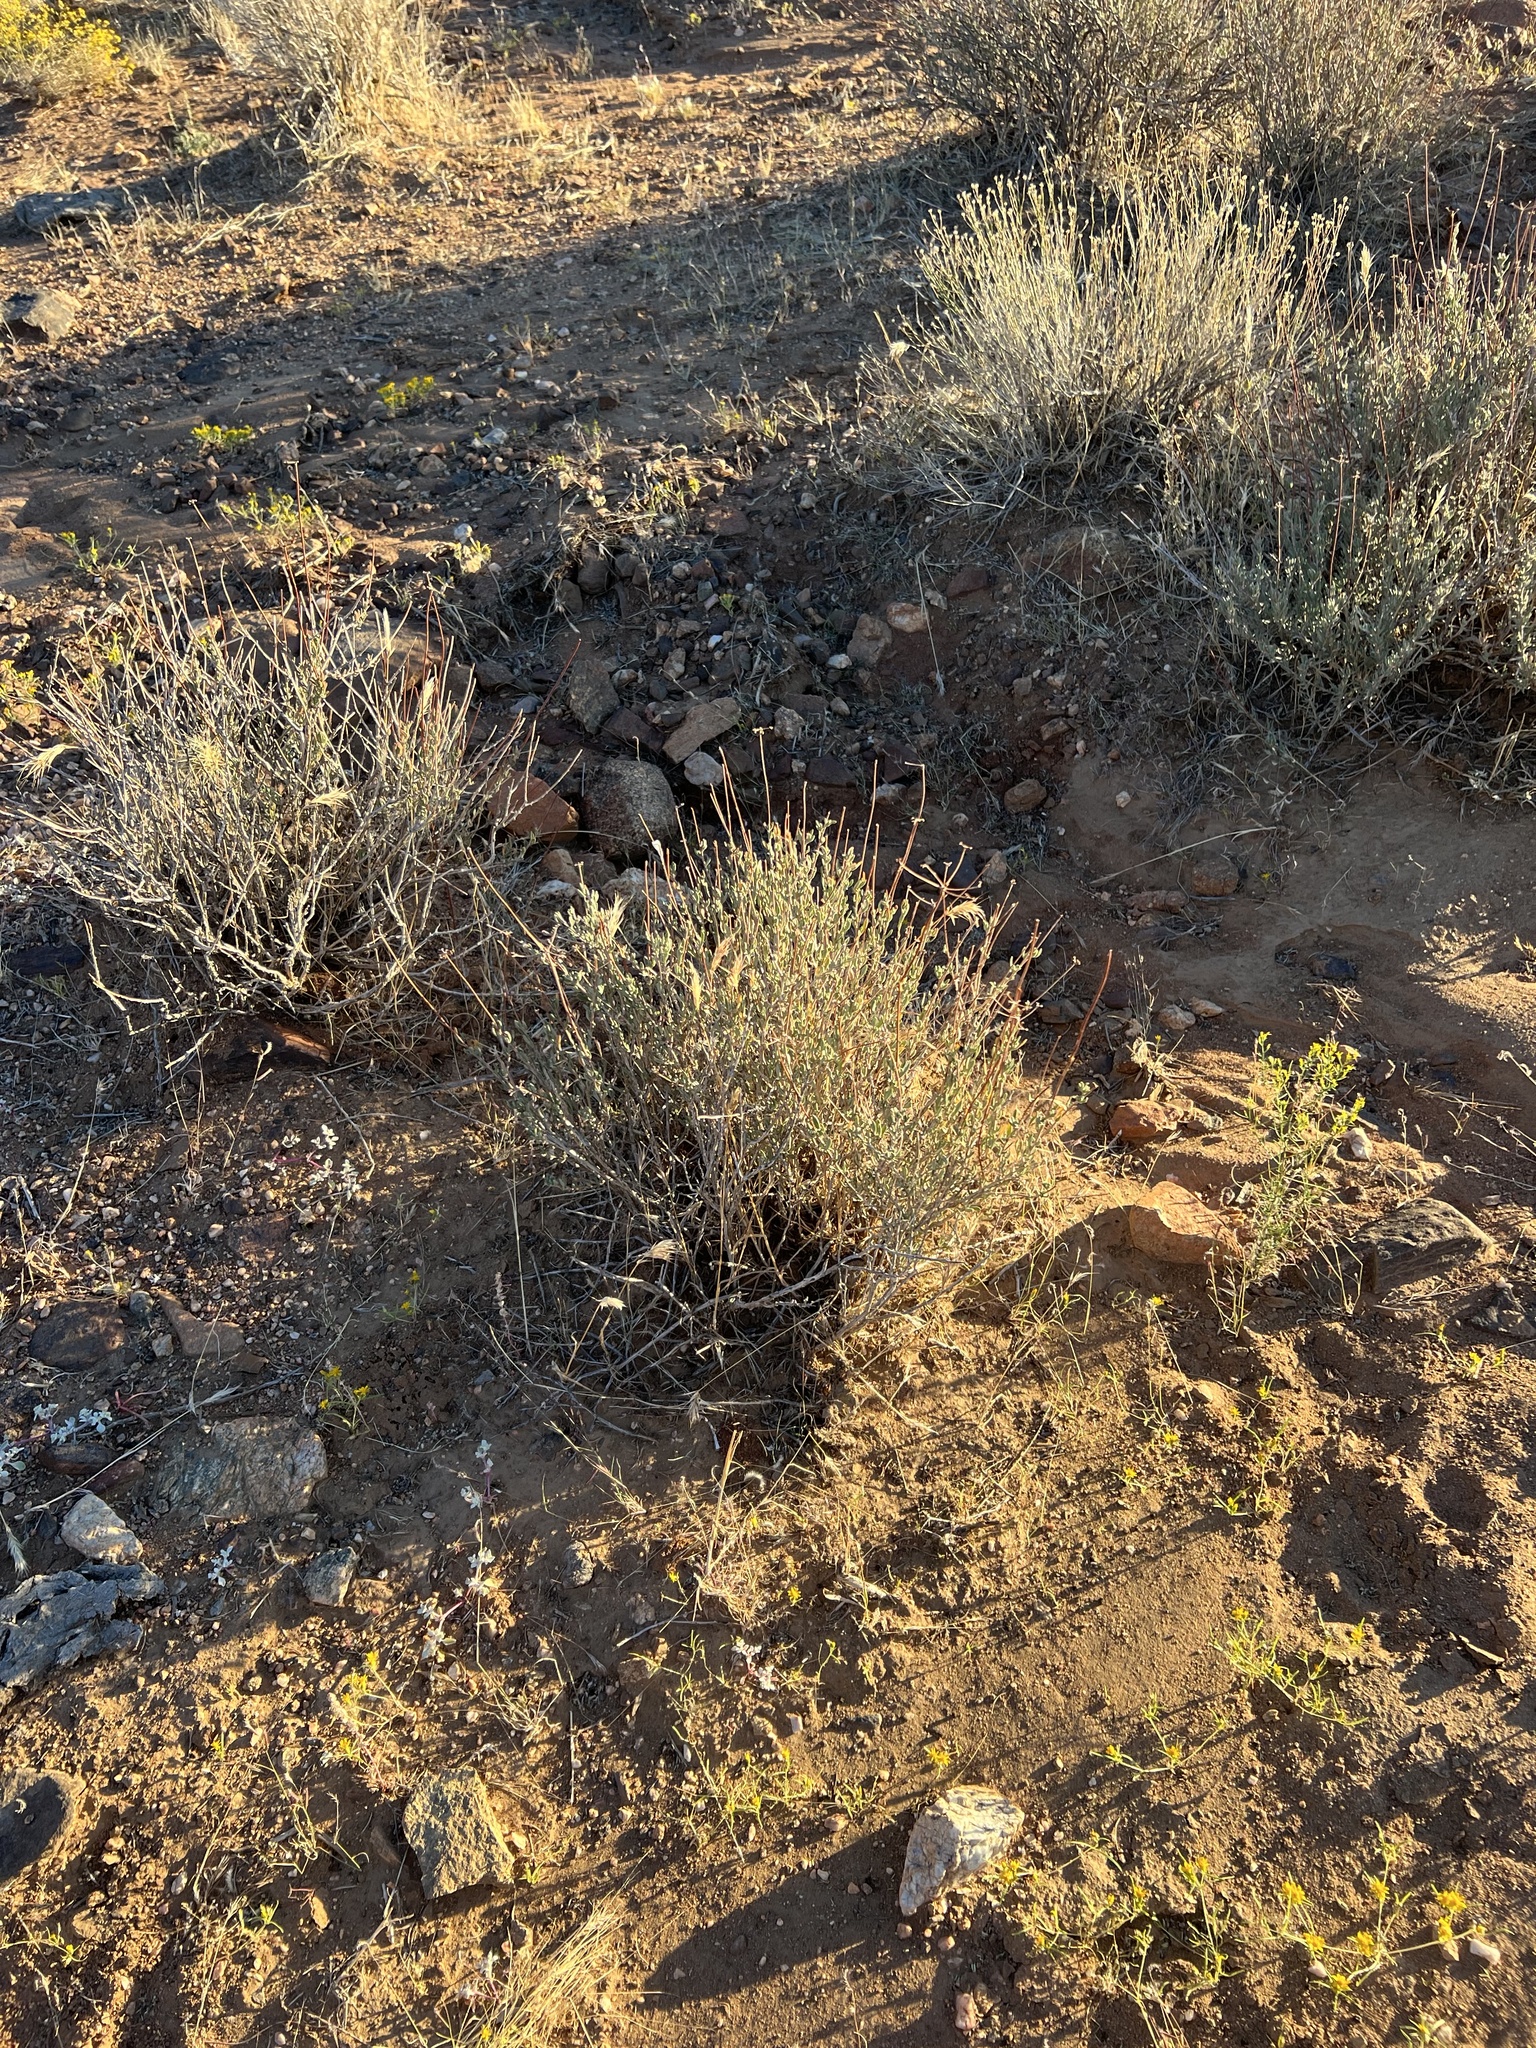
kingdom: Plantae
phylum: Tracheophyta
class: Magnoliopsida
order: Caryophyllales
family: Polygonaceae
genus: Eriogonum
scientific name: Eriogonum fasciculatum
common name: California wild buckwheat
